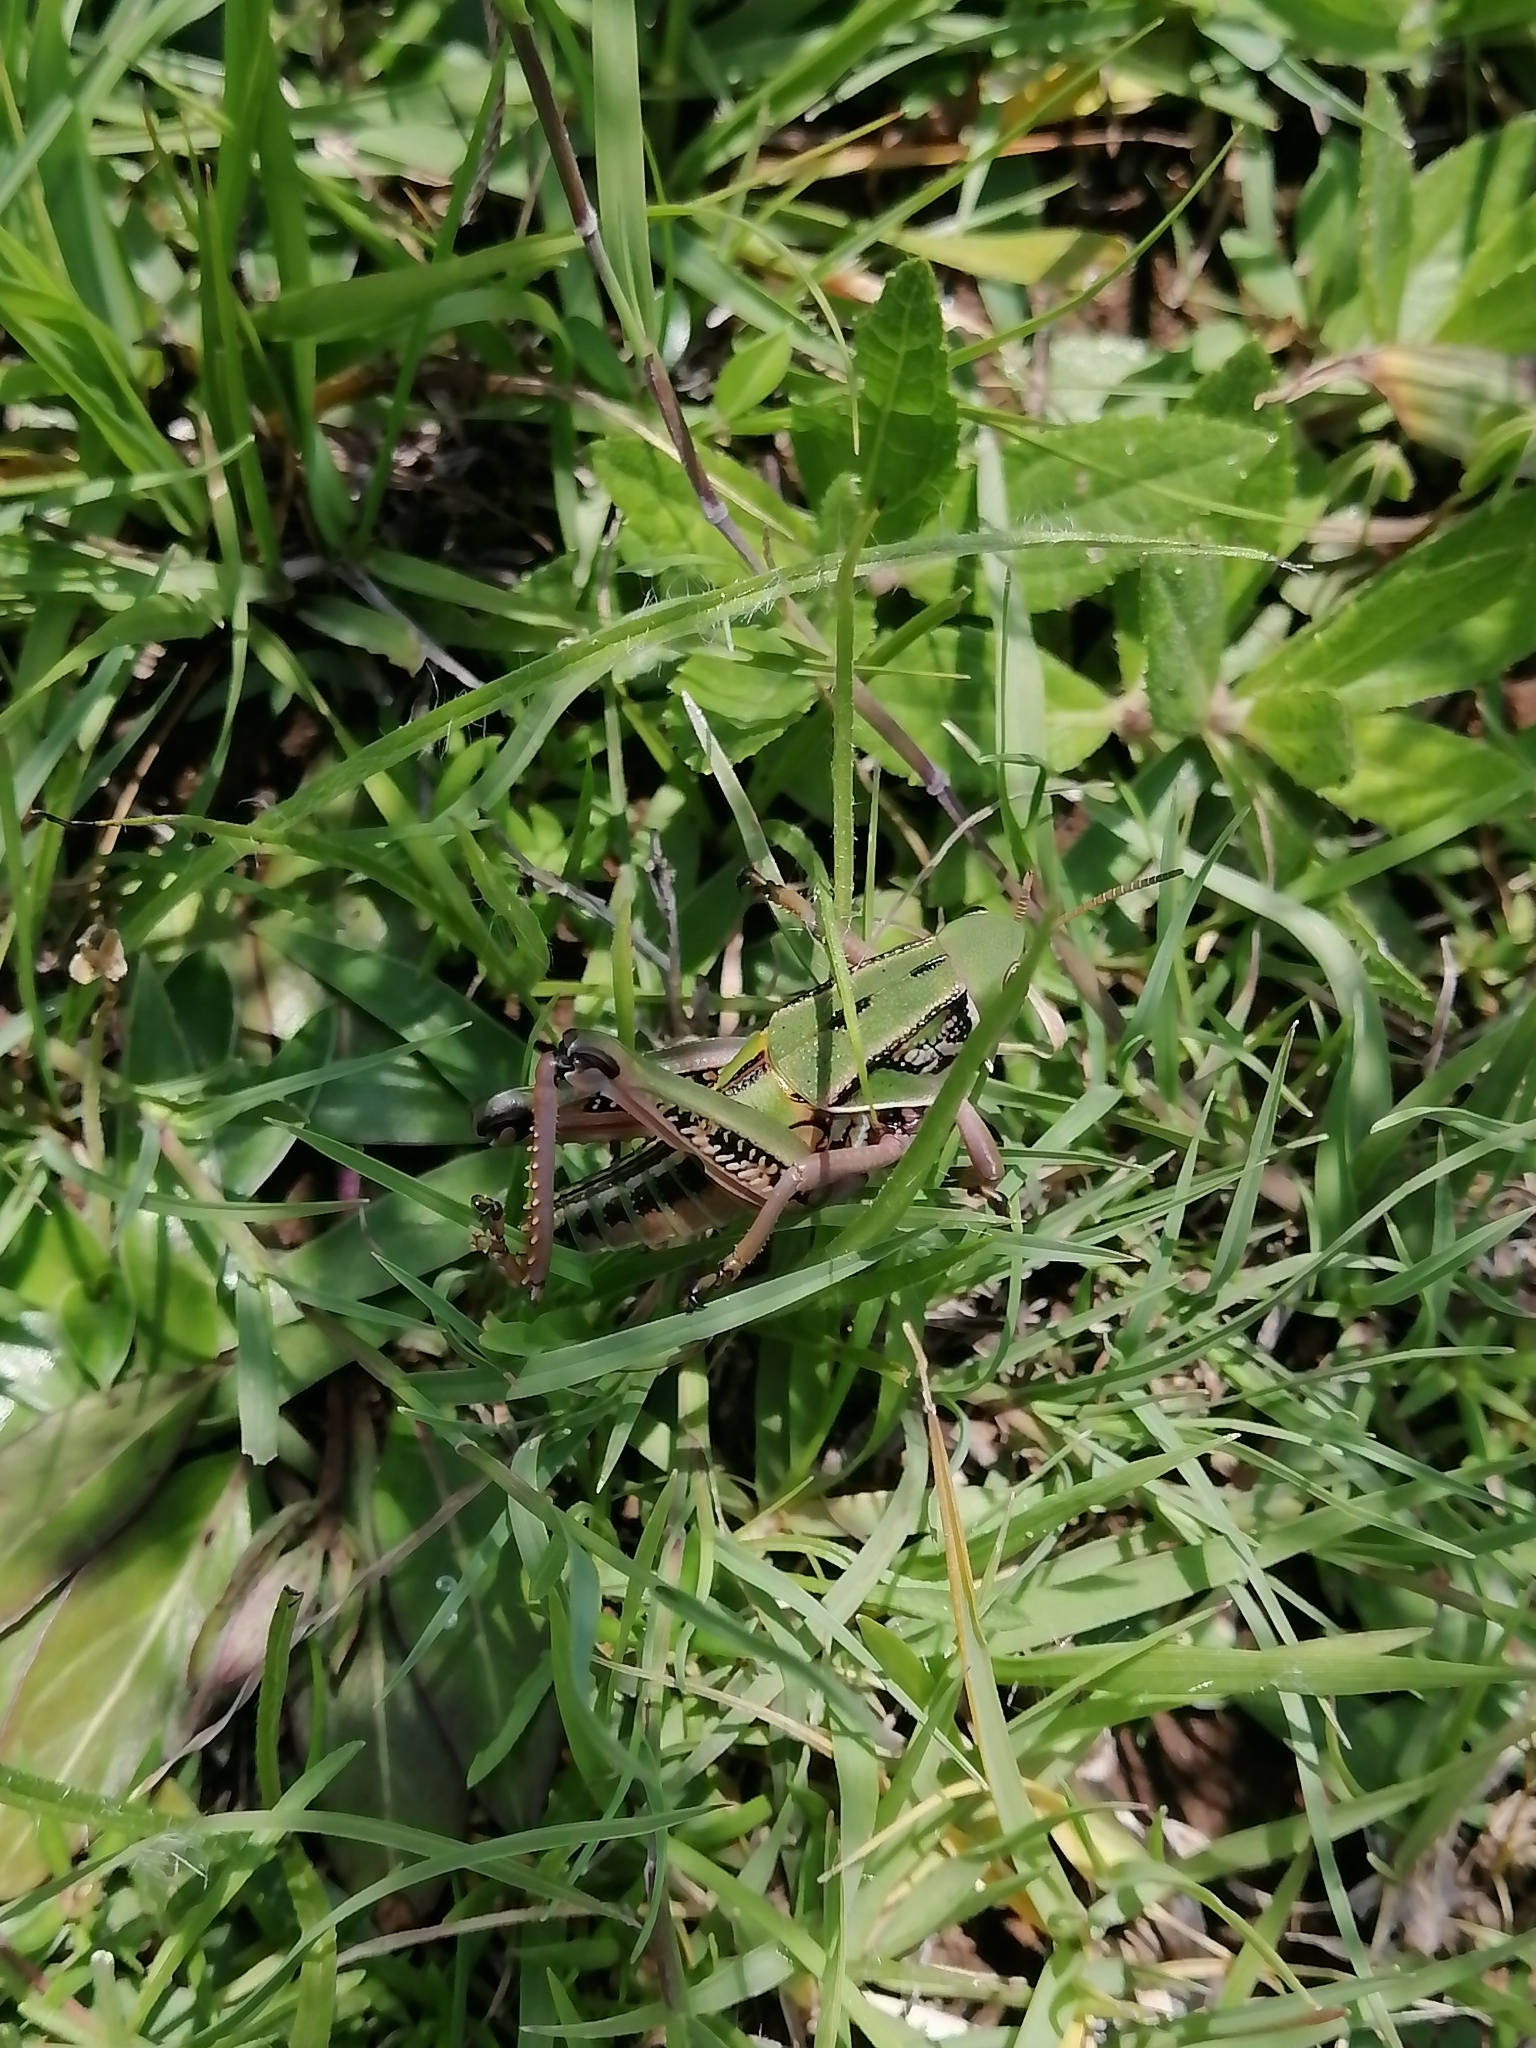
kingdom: Animalia
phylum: Arthropoda
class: Insecta
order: Orthoptera
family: Romaleidae
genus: Brachystola
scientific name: Brachystola mexicana
